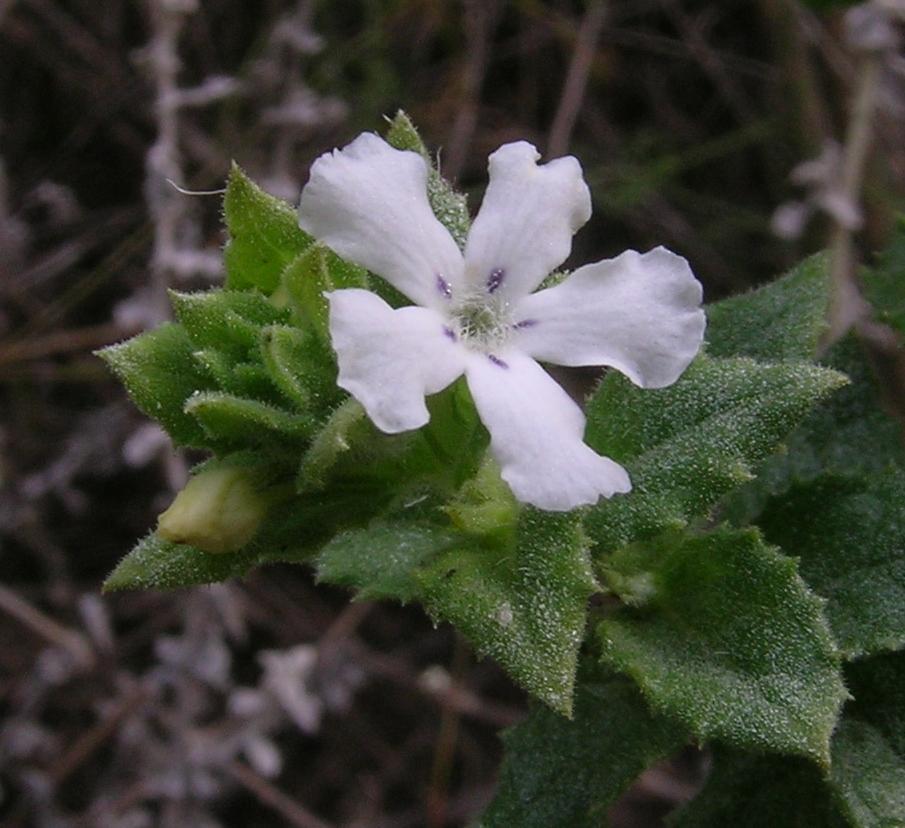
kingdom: Plantae
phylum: Tracheophyta
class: Magnoliopsida
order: Lamiales
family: Scrophulariaceae
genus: Oftia
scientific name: Oftia africana
